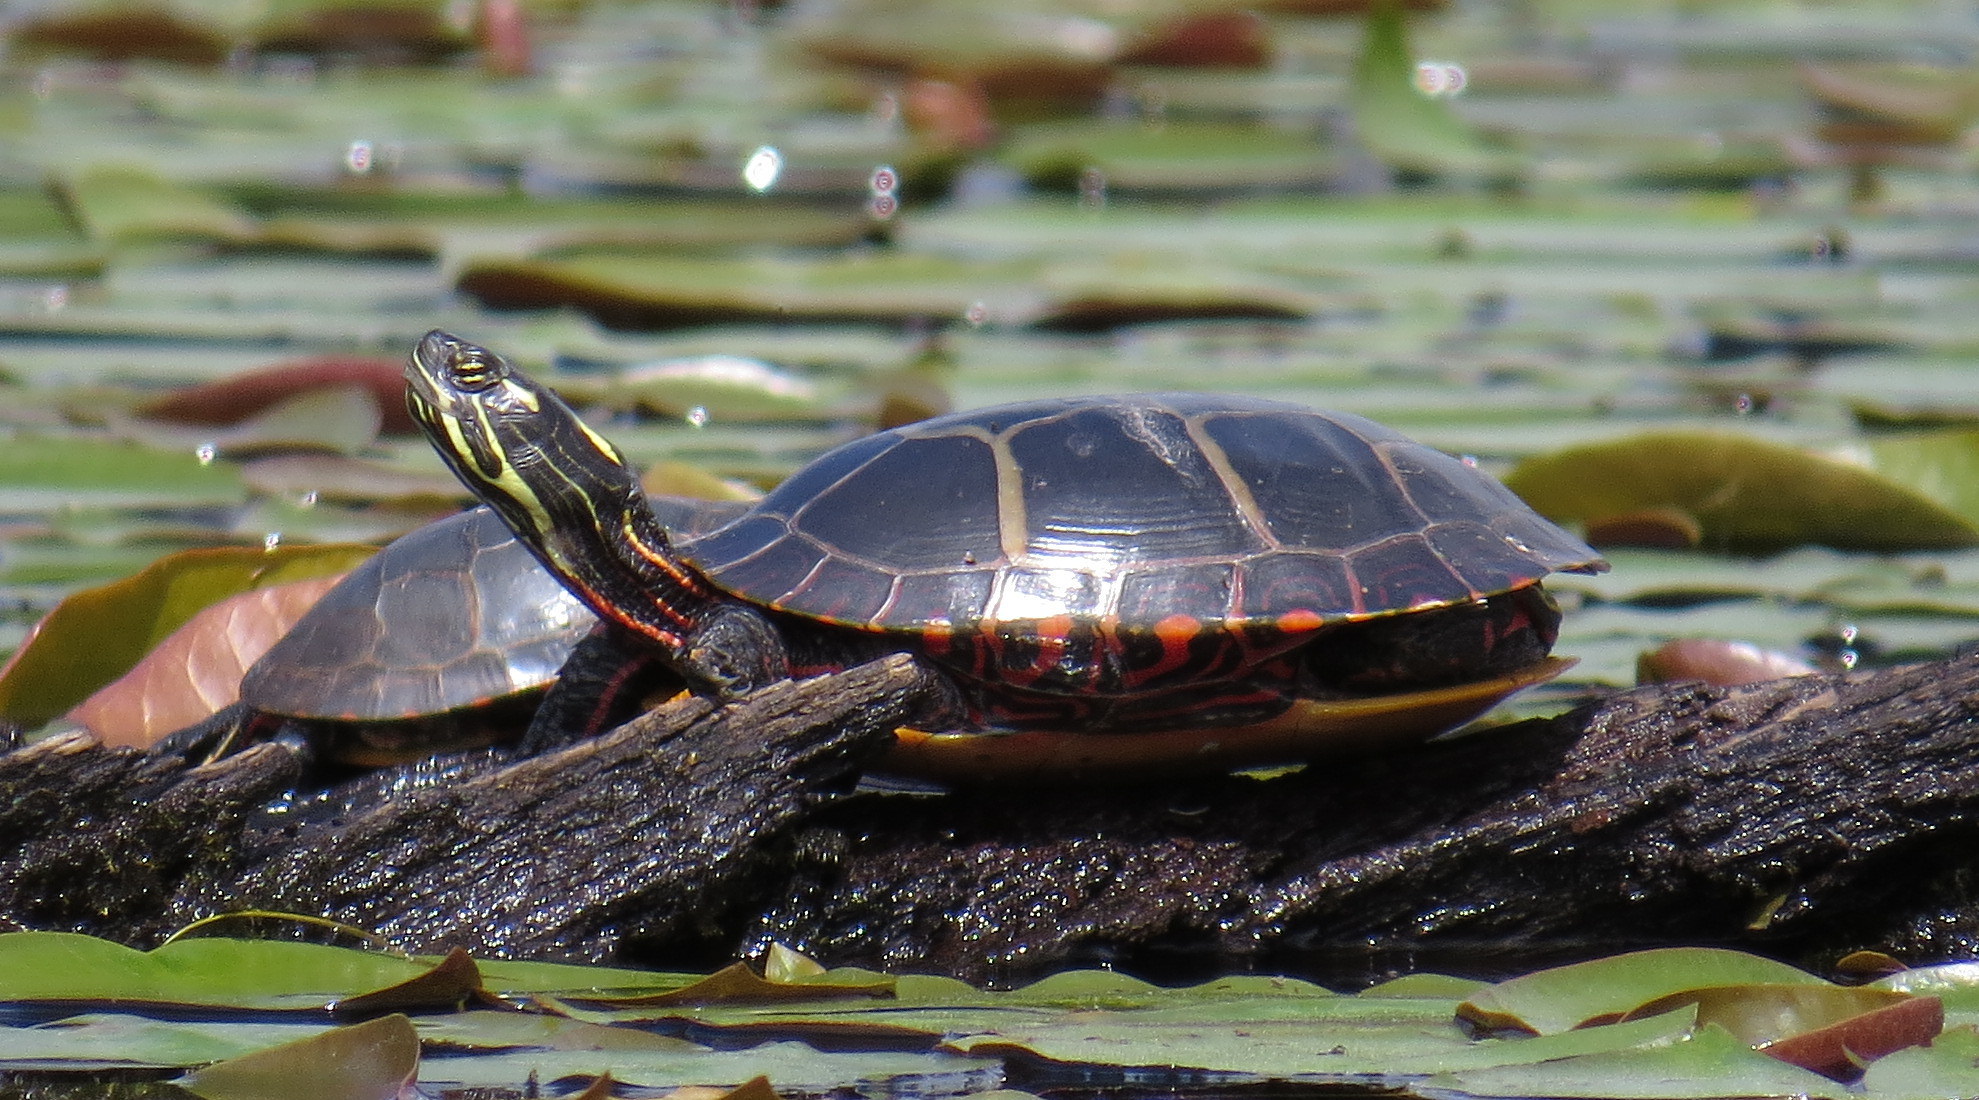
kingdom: Animalia
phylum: Chordata
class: Testudines
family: Emydidae
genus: Chrysemys
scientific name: Chrysemys picta
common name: Painted turtle
